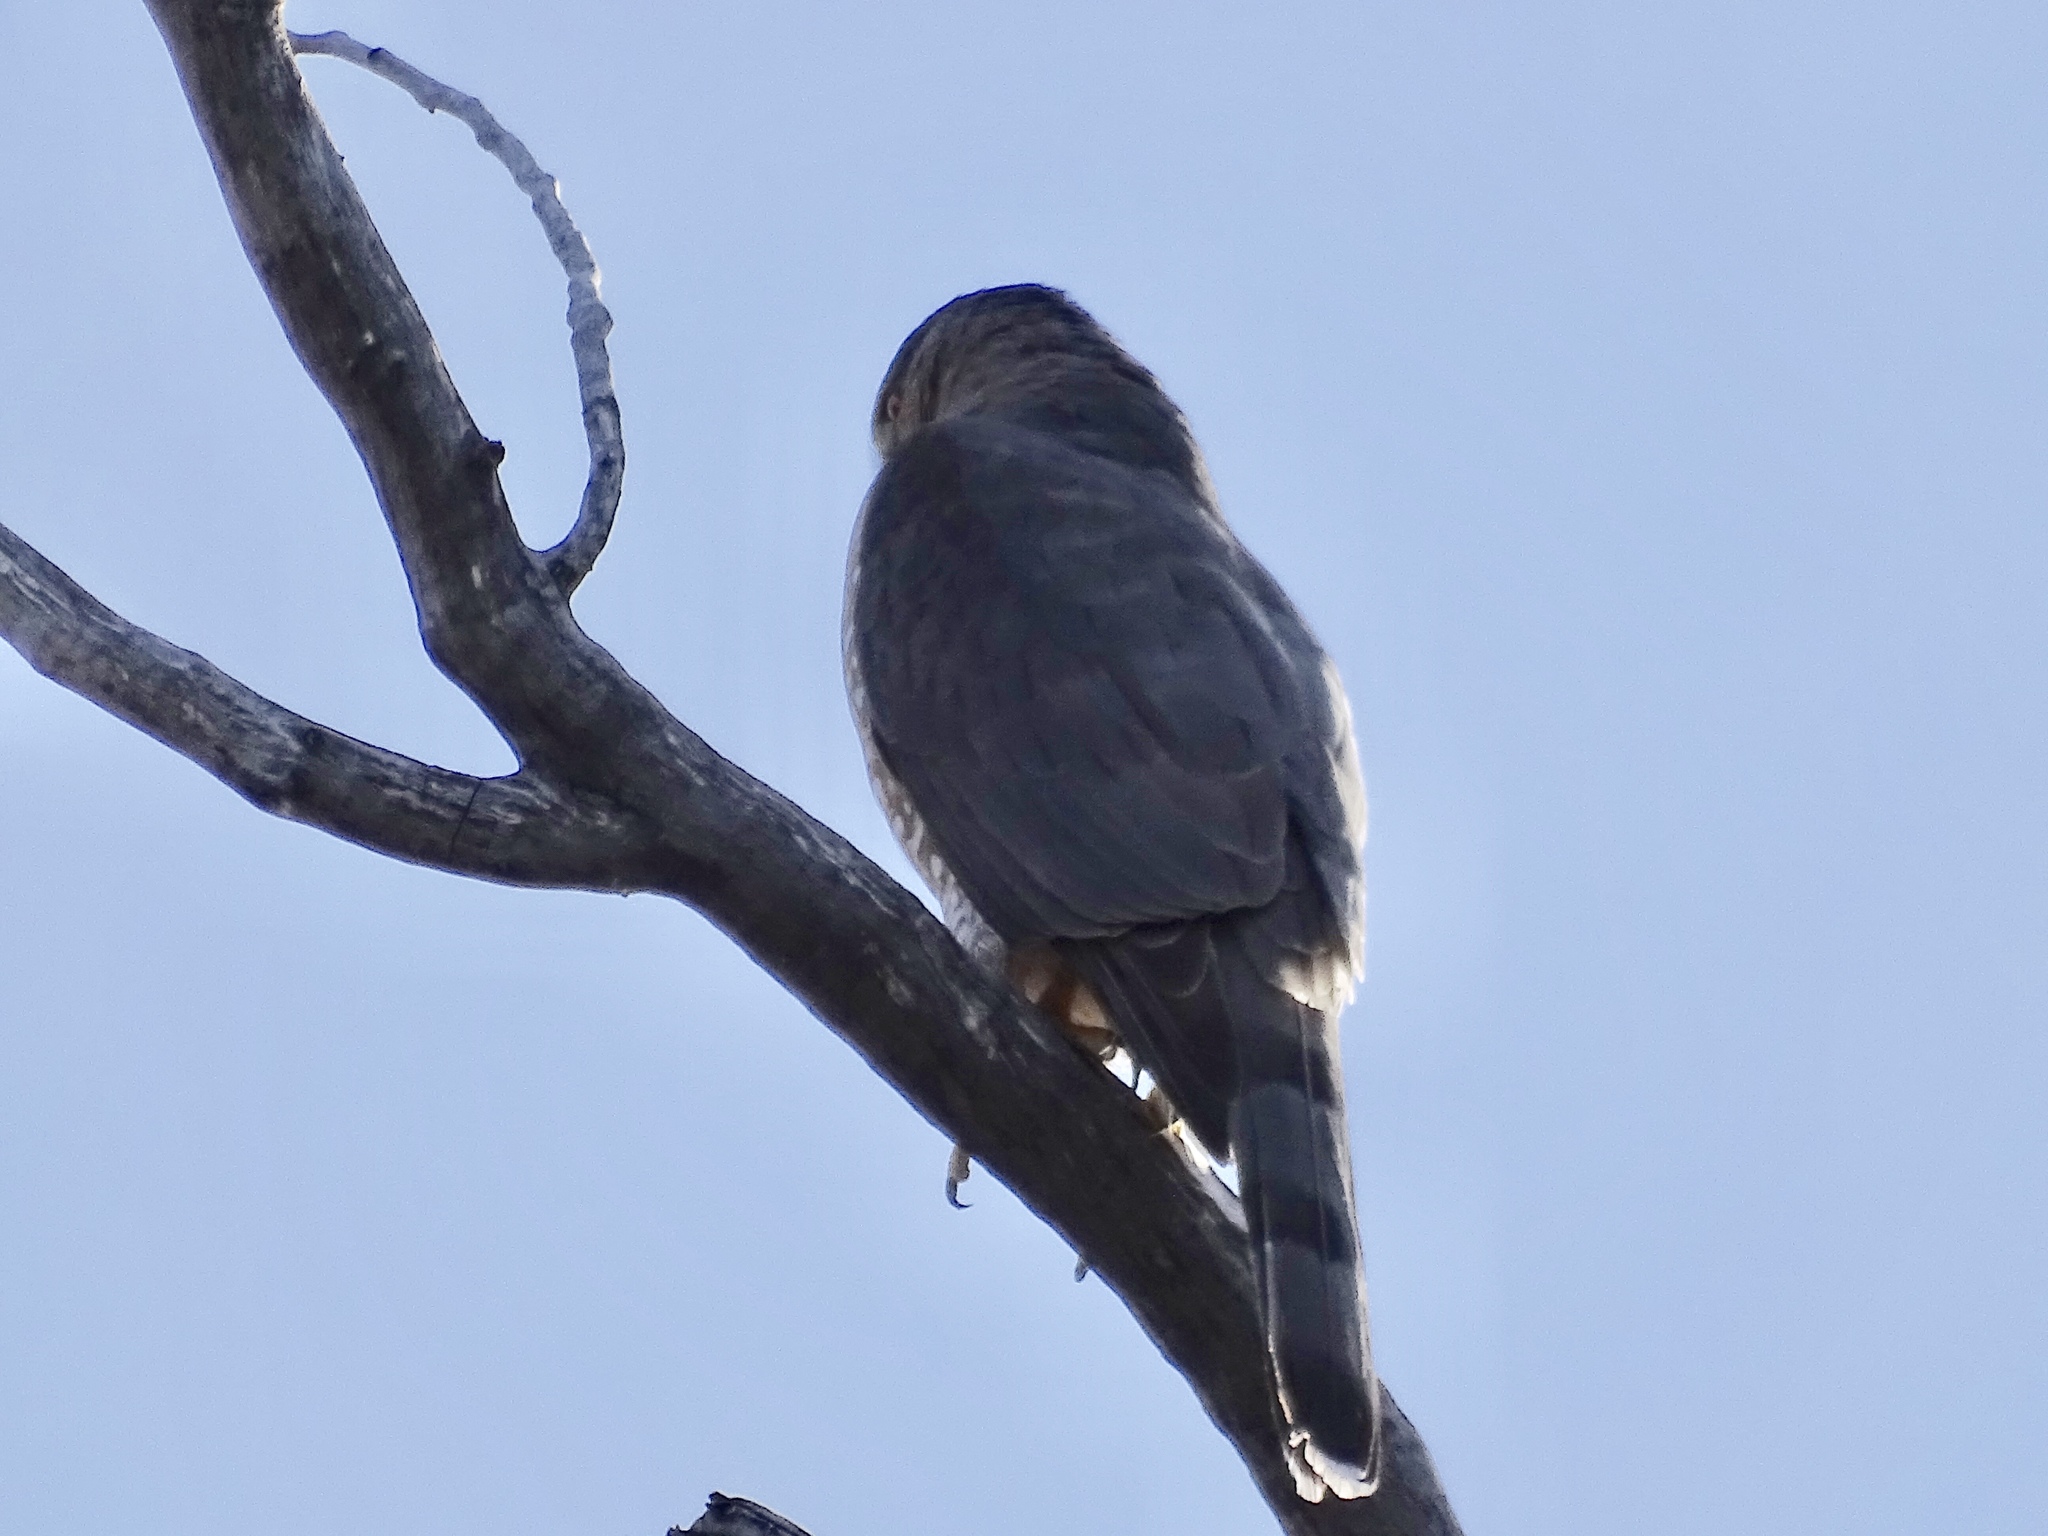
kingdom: Animalia
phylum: Chordata
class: Aves
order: Accipitriformes
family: Accipitridae
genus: Accipiter
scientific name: Accipiter cooperii
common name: Cooper's hawk
